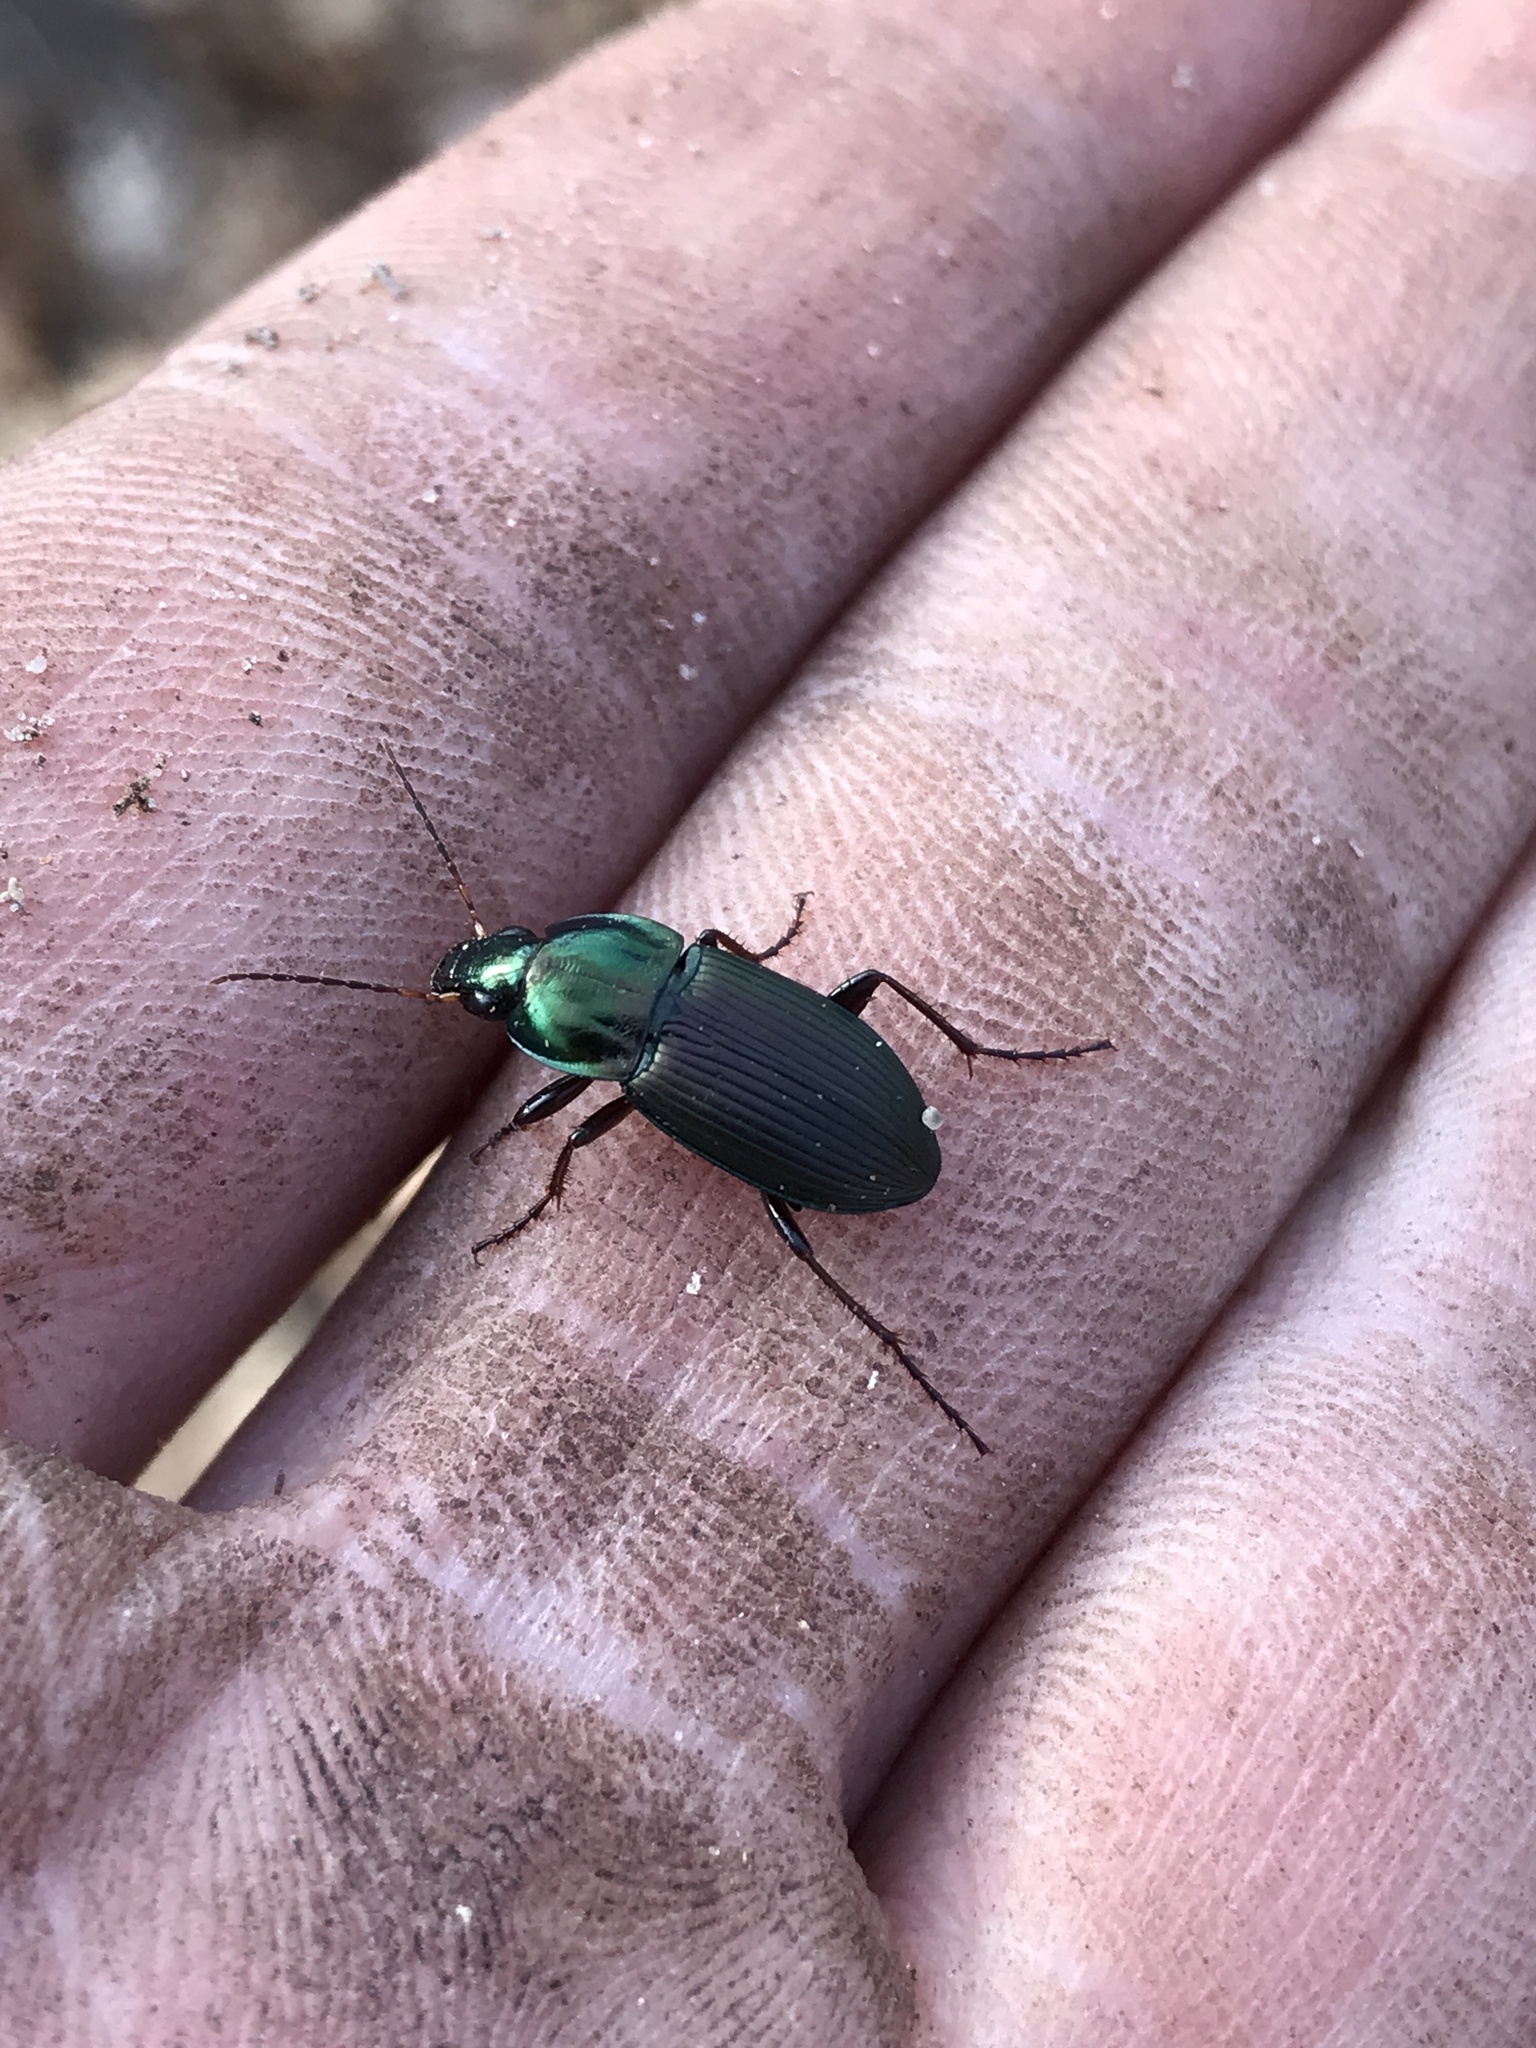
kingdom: Animalia
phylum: Arthropoda
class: Insecta
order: Coleoptera
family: Carabidae
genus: Poecilus
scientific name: Poecilus lucublandus
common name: Woodland ground beetle
